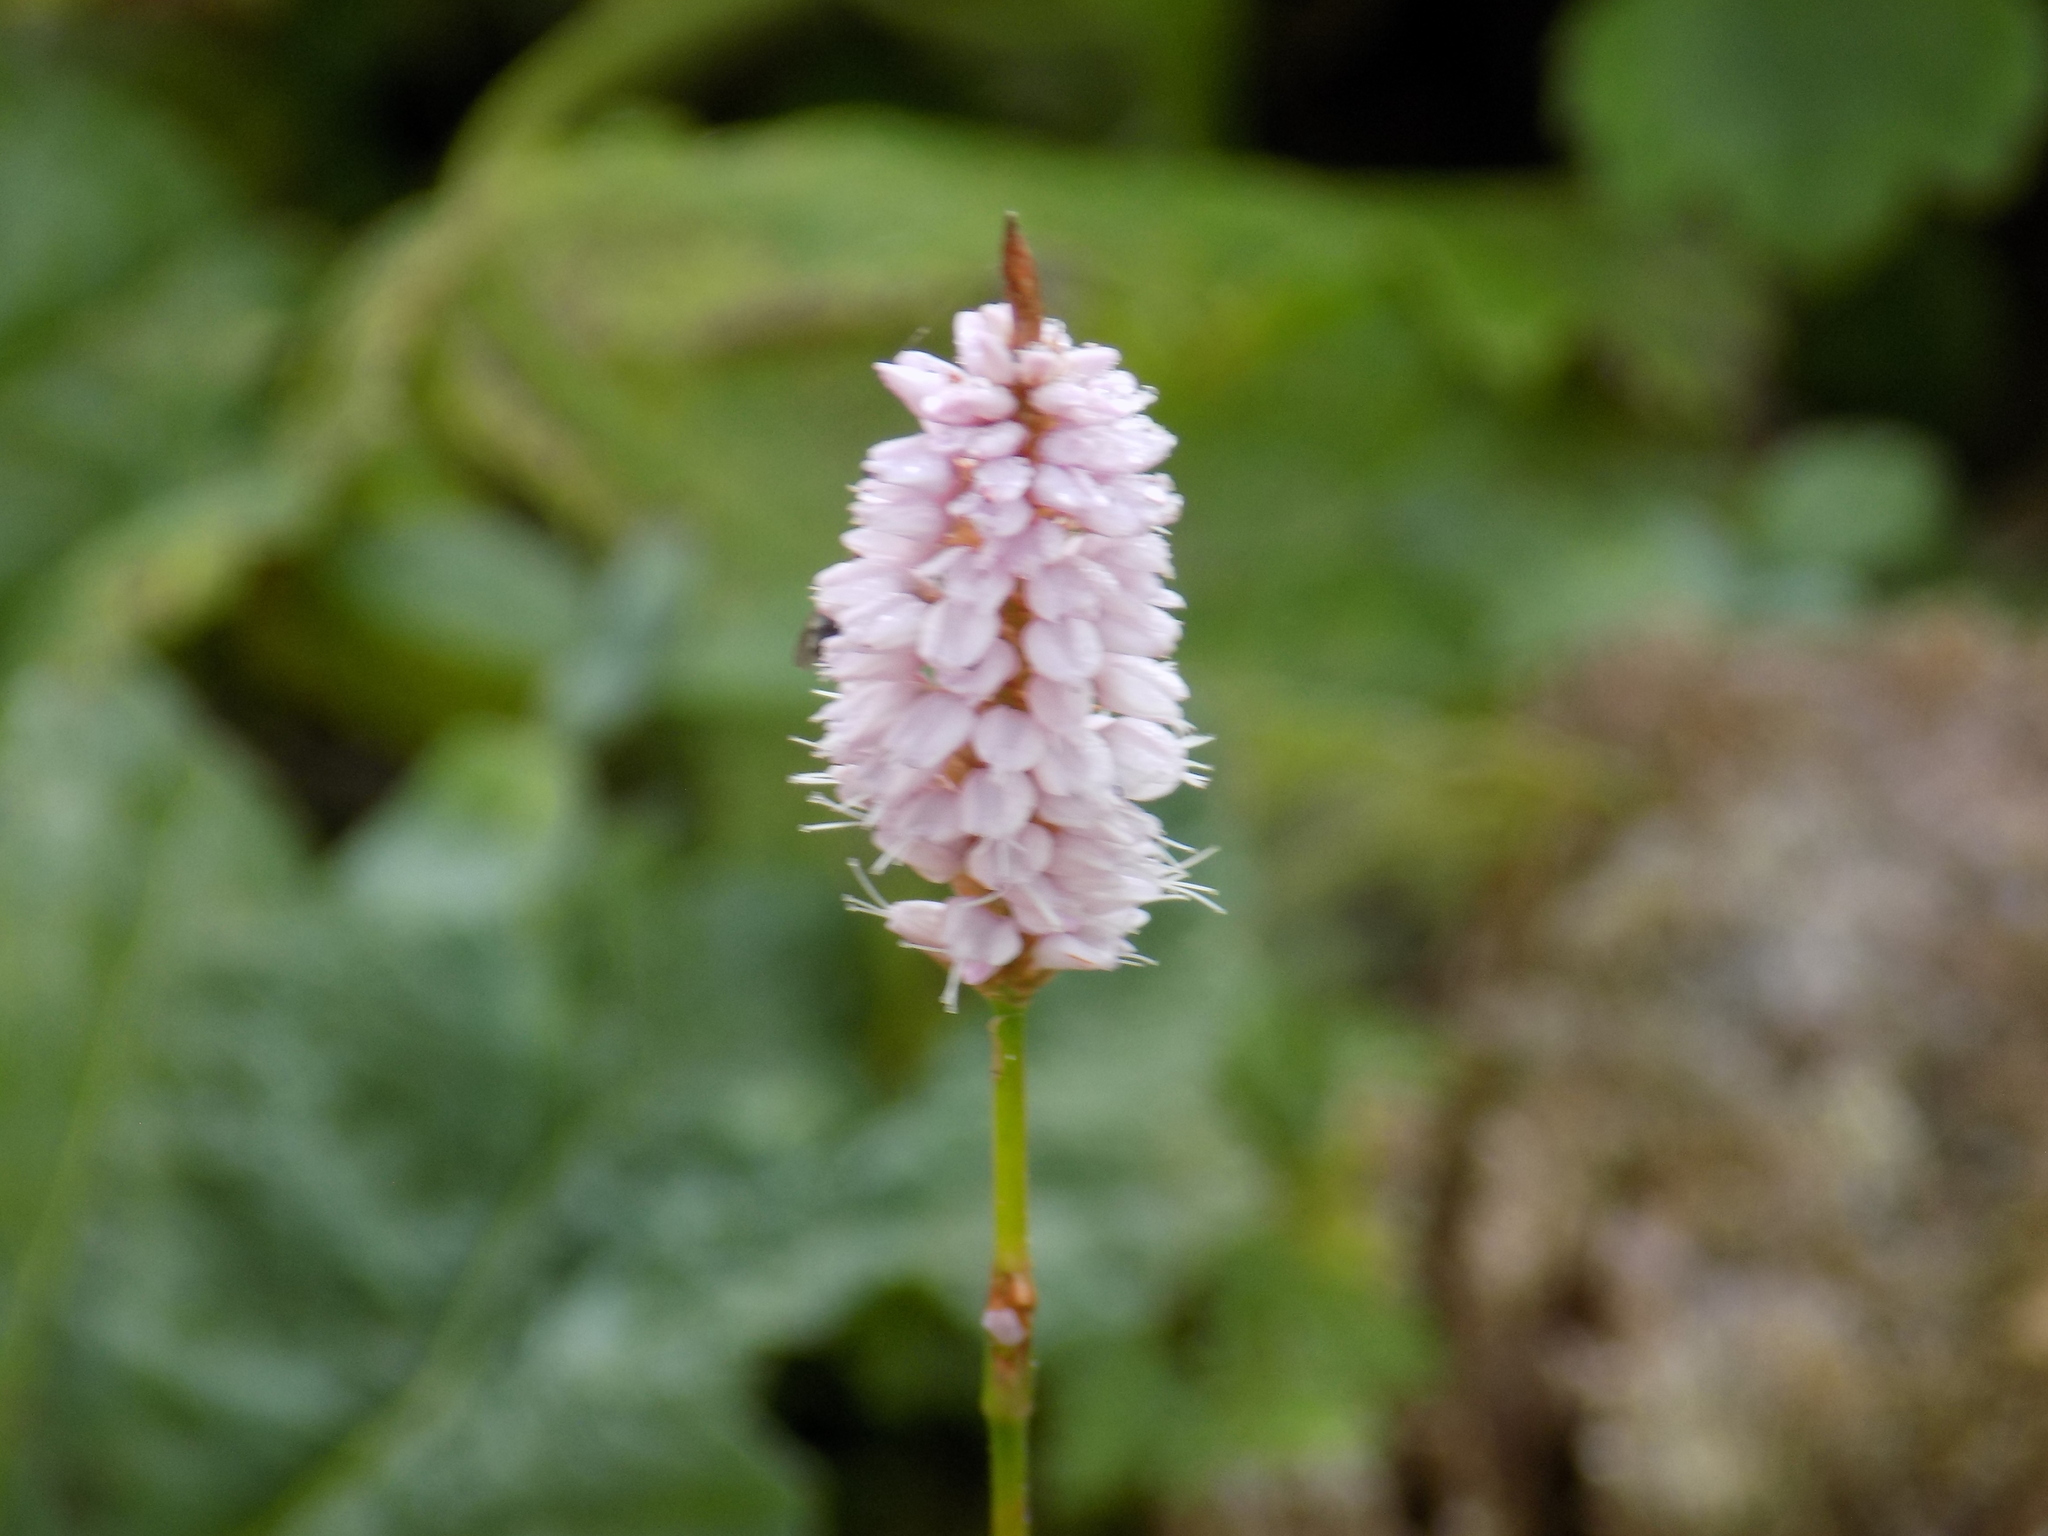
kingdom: Plantae
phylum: Tracheophyta
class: Magnoliopsida
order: Caryophyllales
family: Polygonaceae
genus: Bistorta
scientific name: Bistorta officinalis
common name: Common bistort
